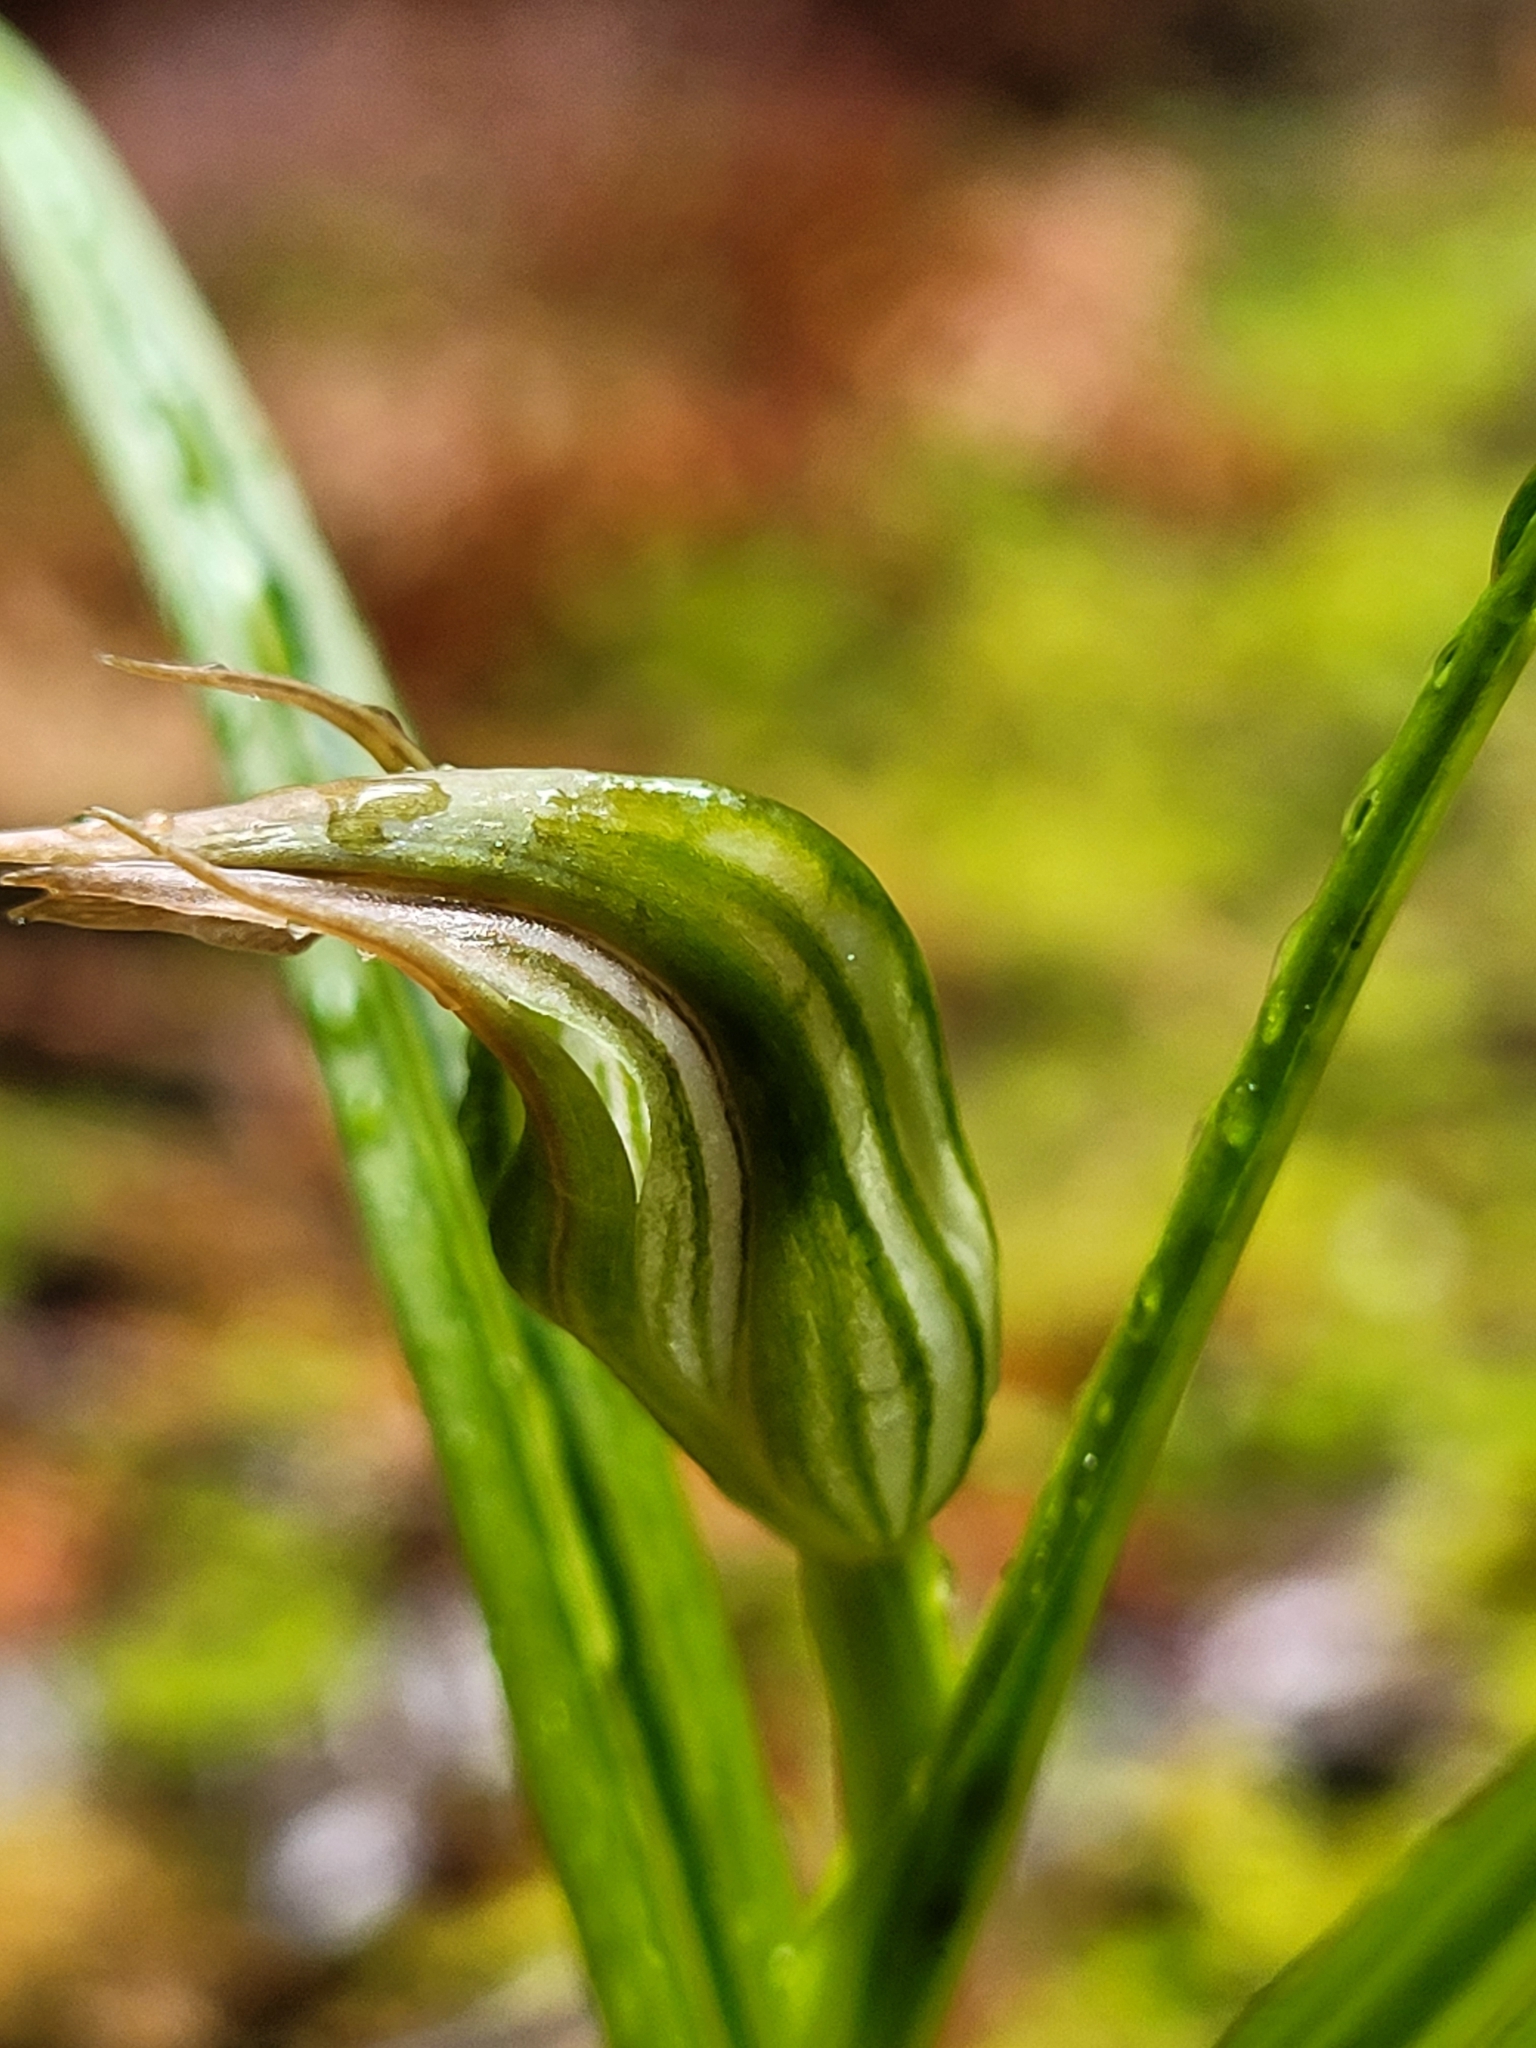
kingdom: Plantae
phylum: Tracheophyta
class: Liliopsida
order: Asparagales
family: Orchidaceae
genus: Pterostylis
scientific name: Pterostylis irsoniana
